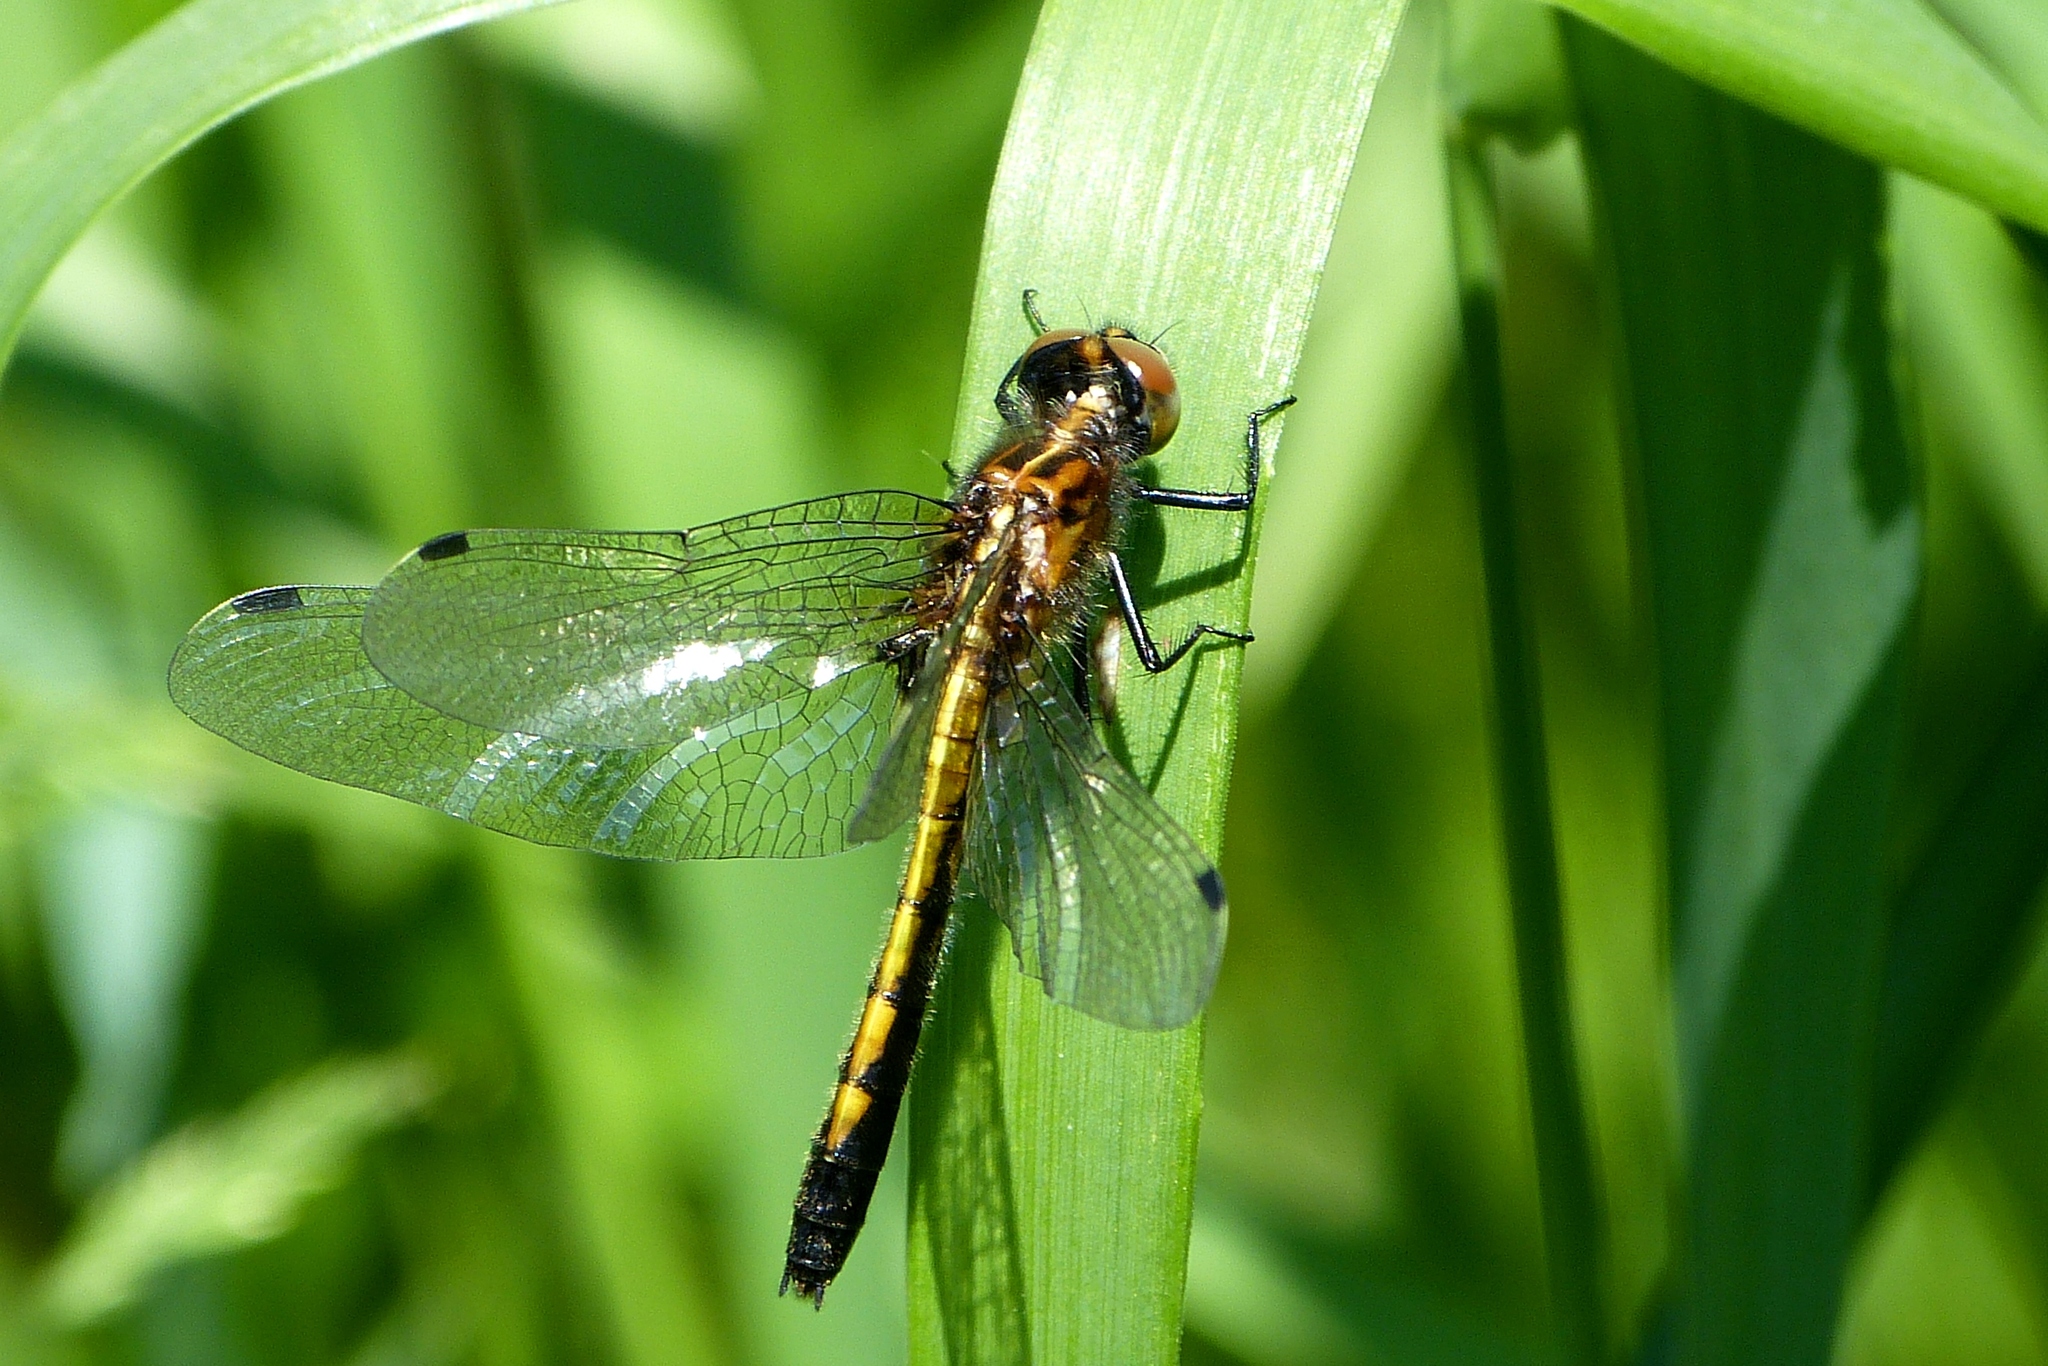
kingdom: Animalia
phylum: Arthropoda
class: Insecta
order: Odonata
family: Libellulidae
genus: Leucorrhinia
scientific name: Leucorrhinia intacta
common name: Dot-tailed whiteface
